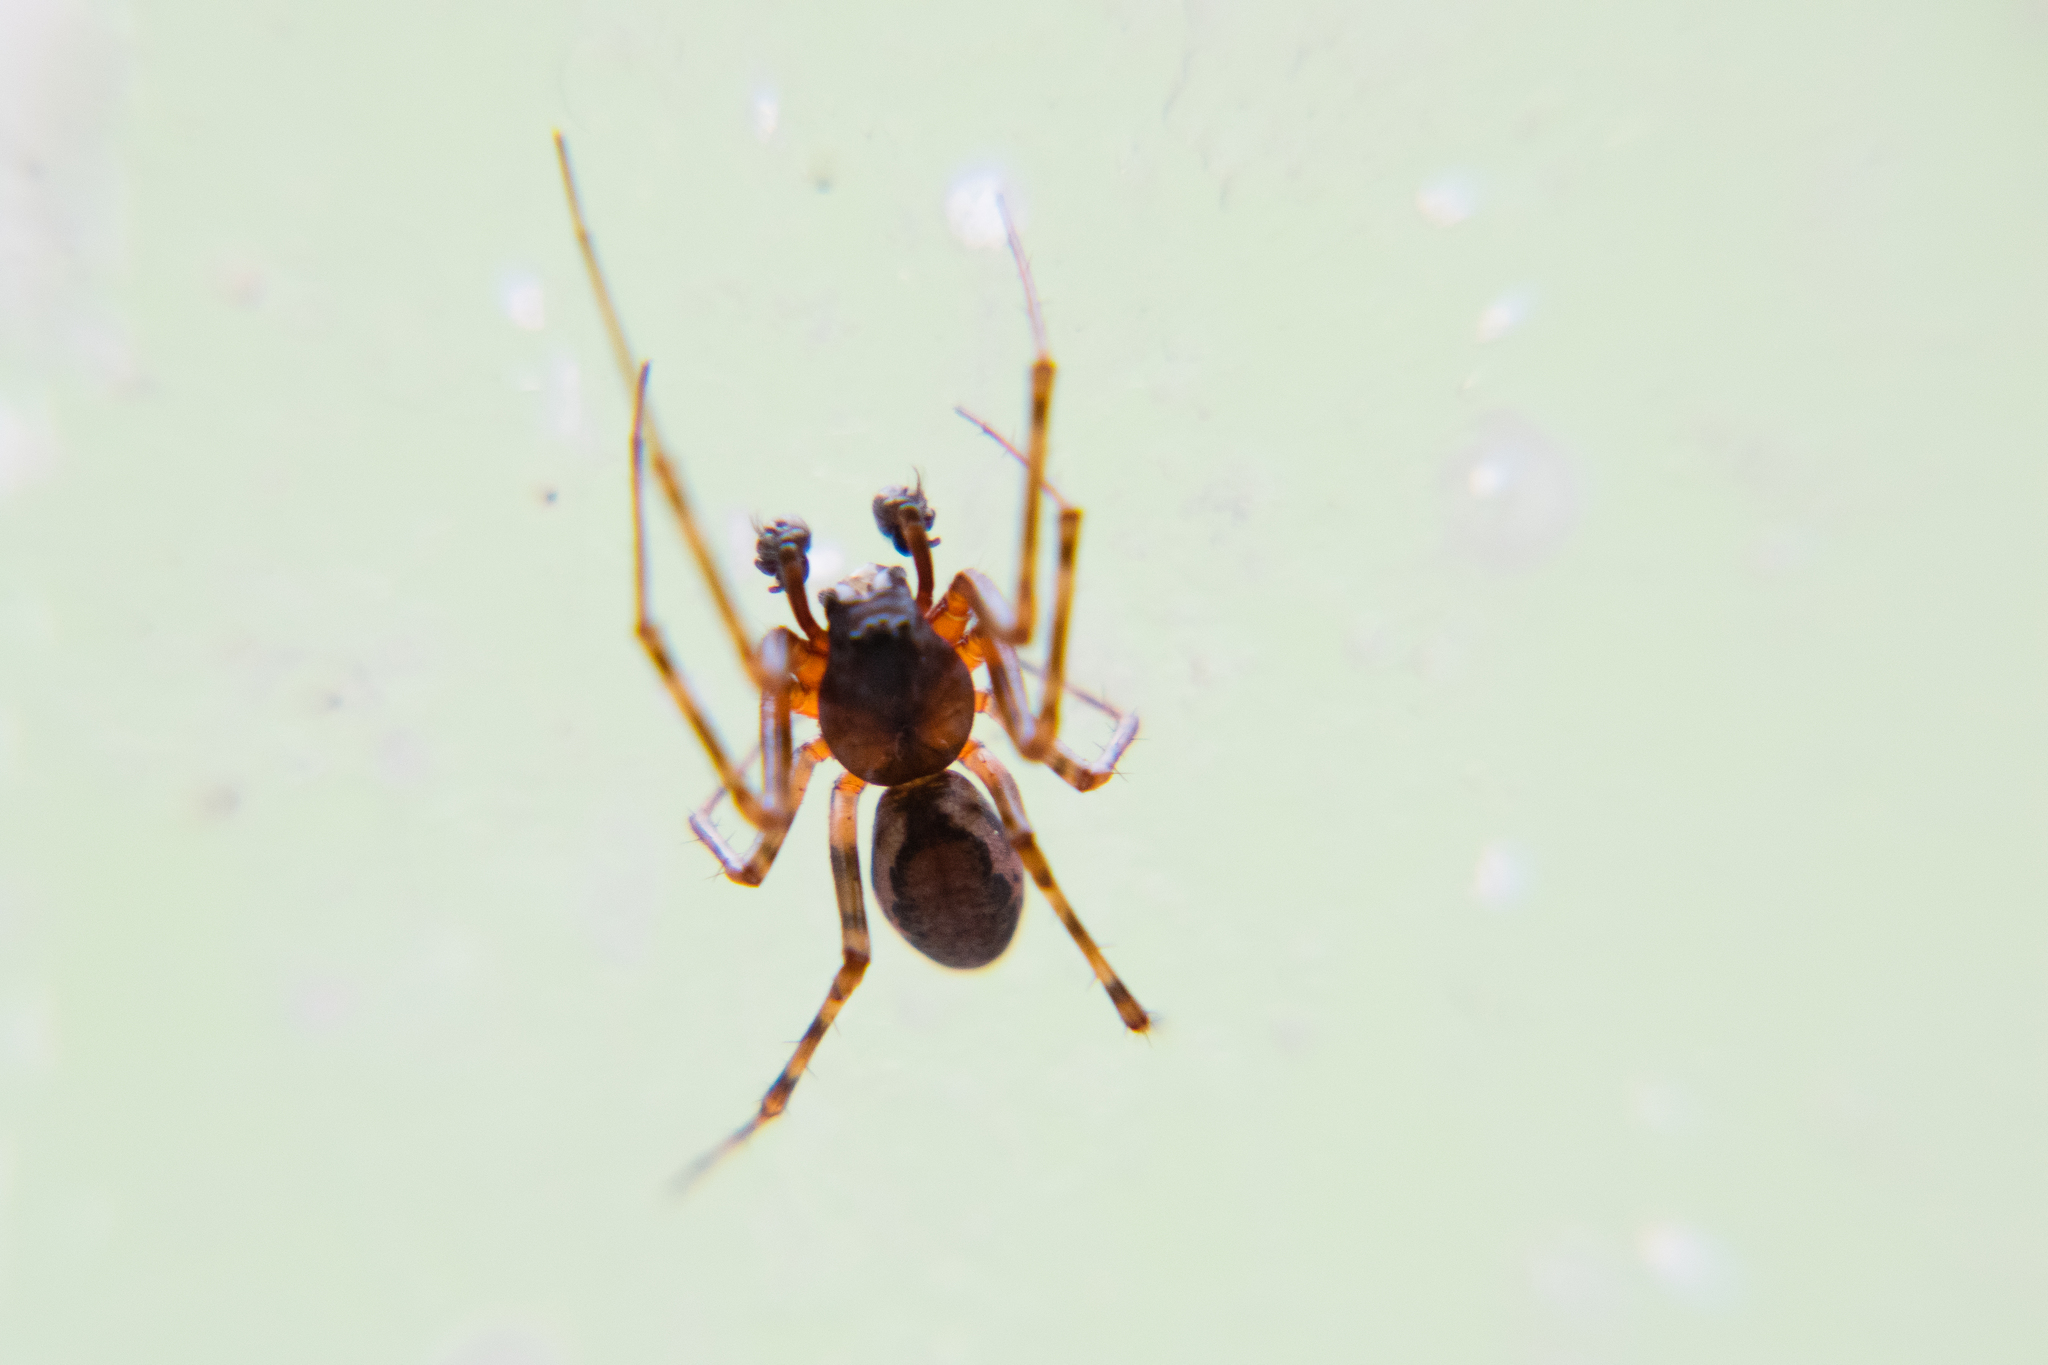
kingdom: Animalia
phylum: Arthropoda
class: Arachnida
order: Araneae
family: Linyphiidae
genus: Neriene
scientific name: Neriene montana
